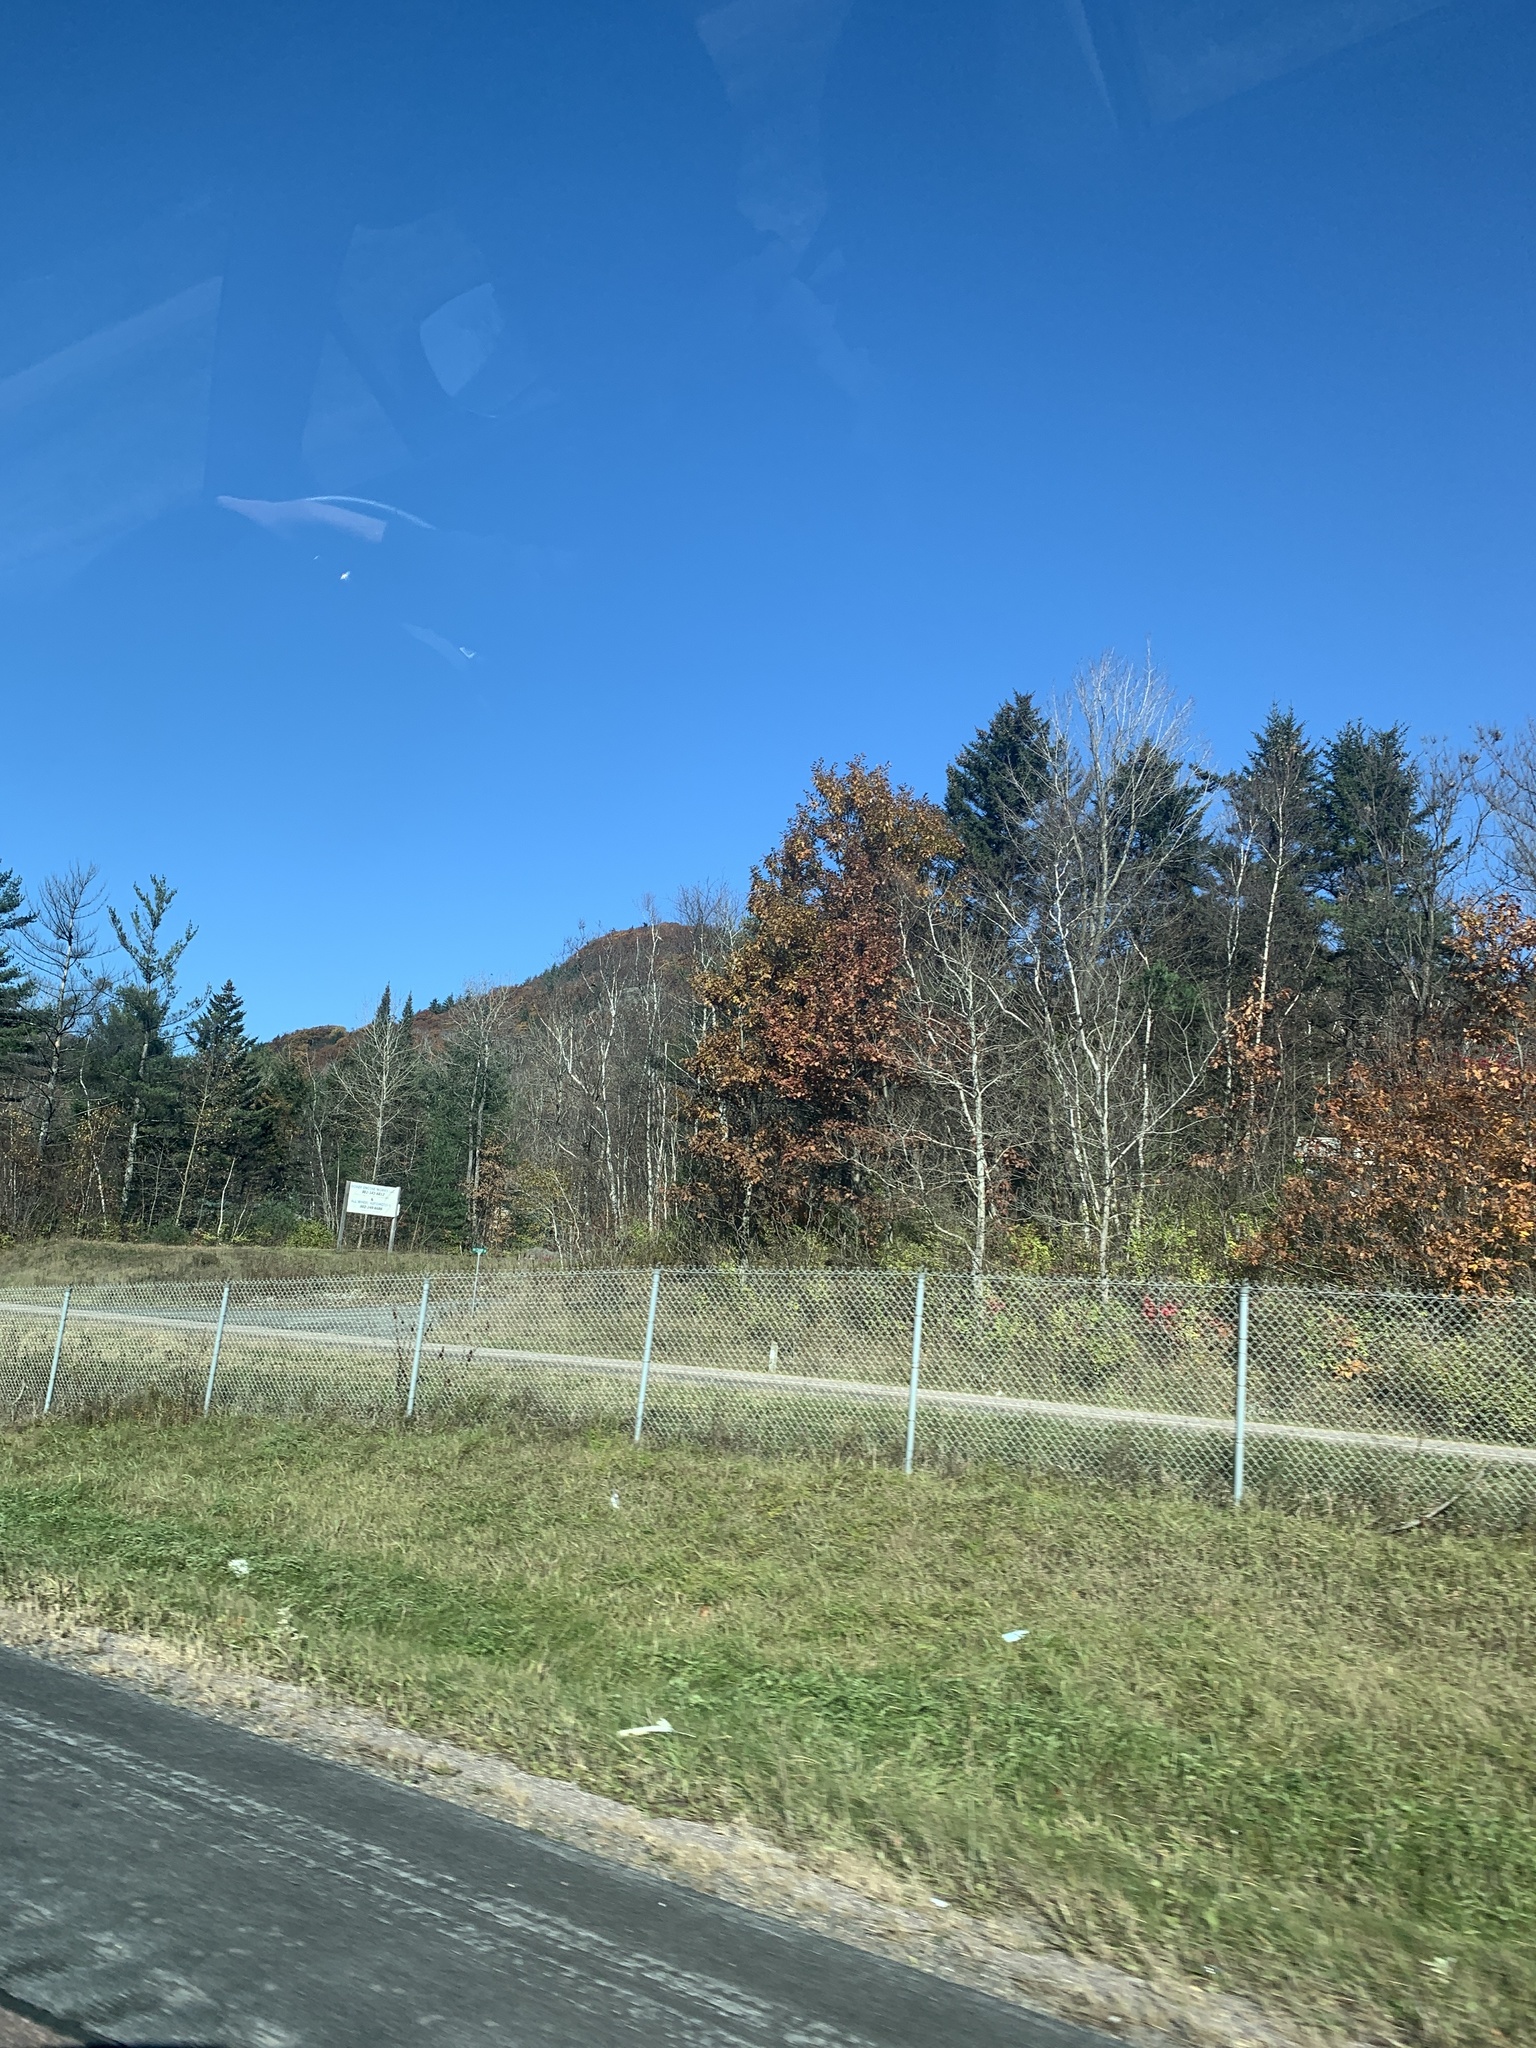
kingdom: Plantae
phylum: Tracheophyta
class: Magnoliopsida
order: Fagales
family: Fagaceae
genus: Quercus
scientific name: Quercus rubra
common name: Red oak
